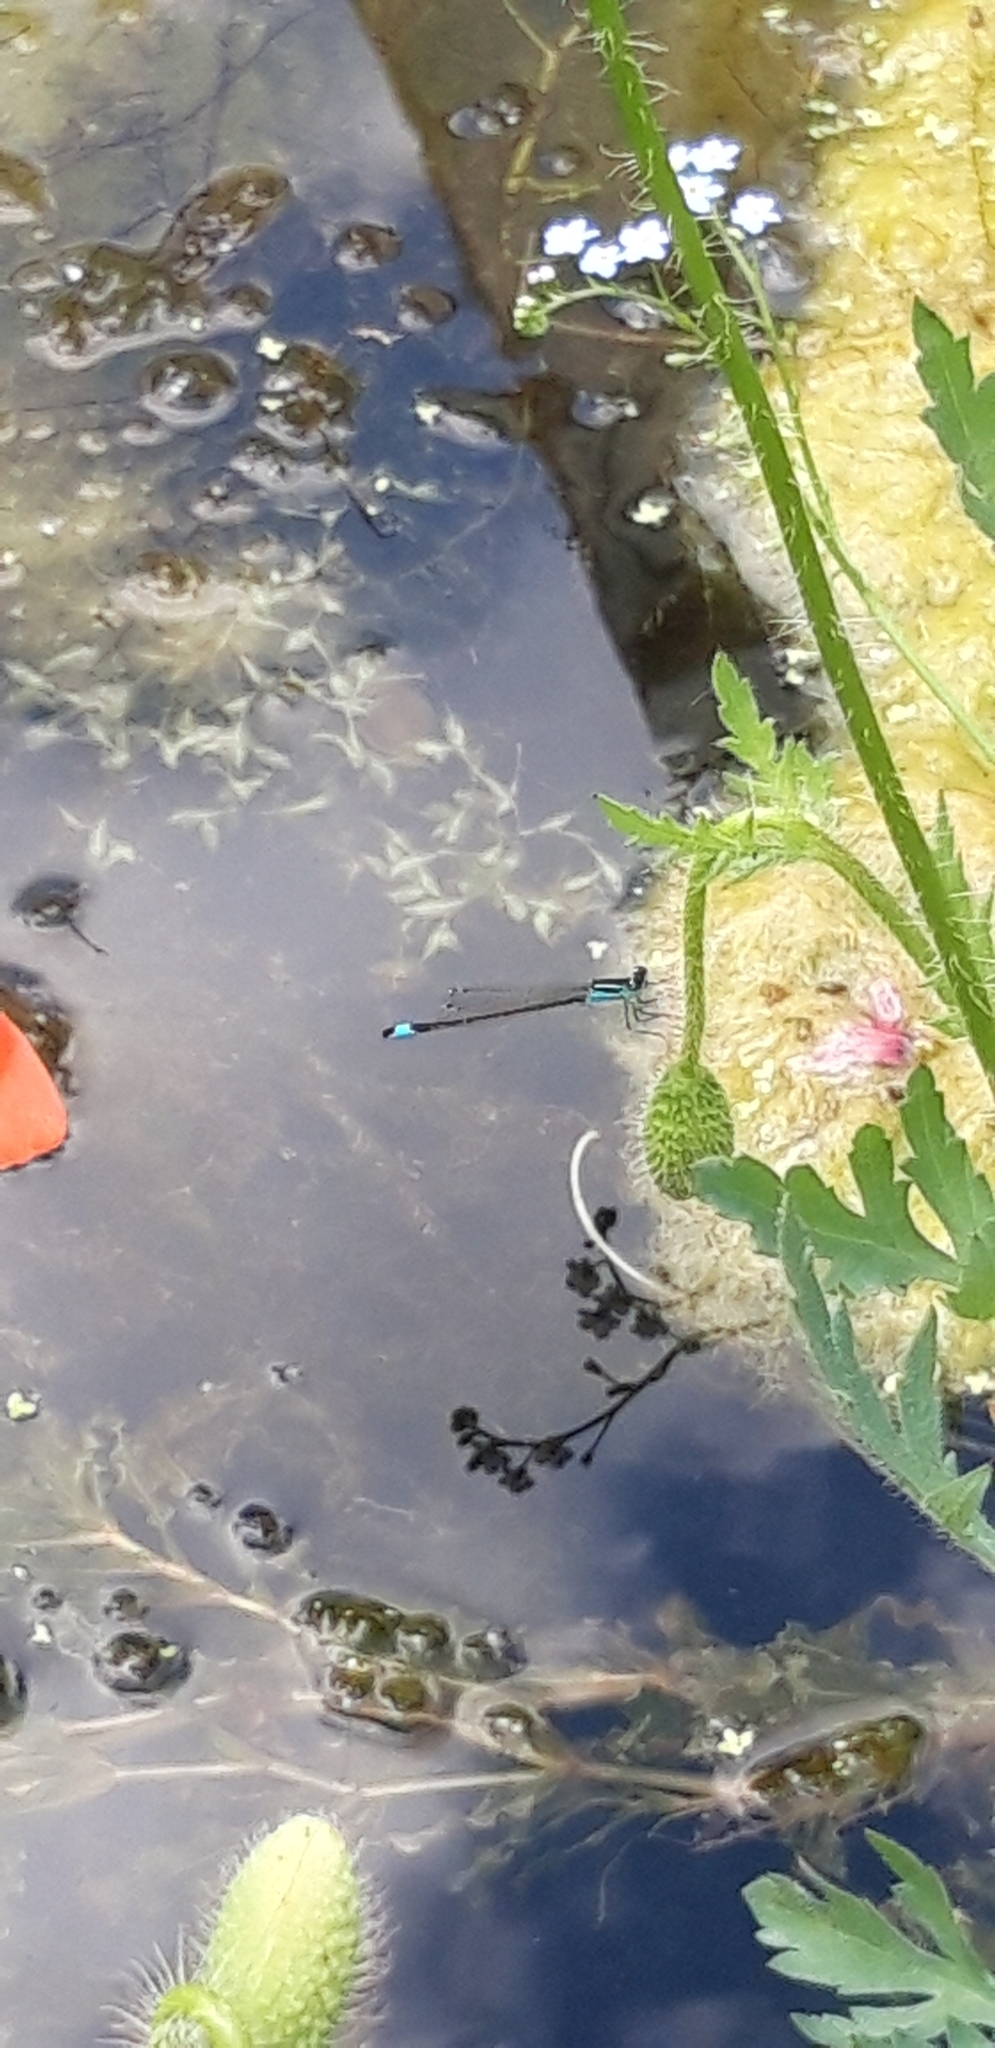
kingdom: Animalia
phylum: Arthropoda
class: Insecta
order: Odonata
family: Coenagrionidae
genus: Ischnura
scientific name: Ischnura elegans
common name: Blue-tailed damselfly
